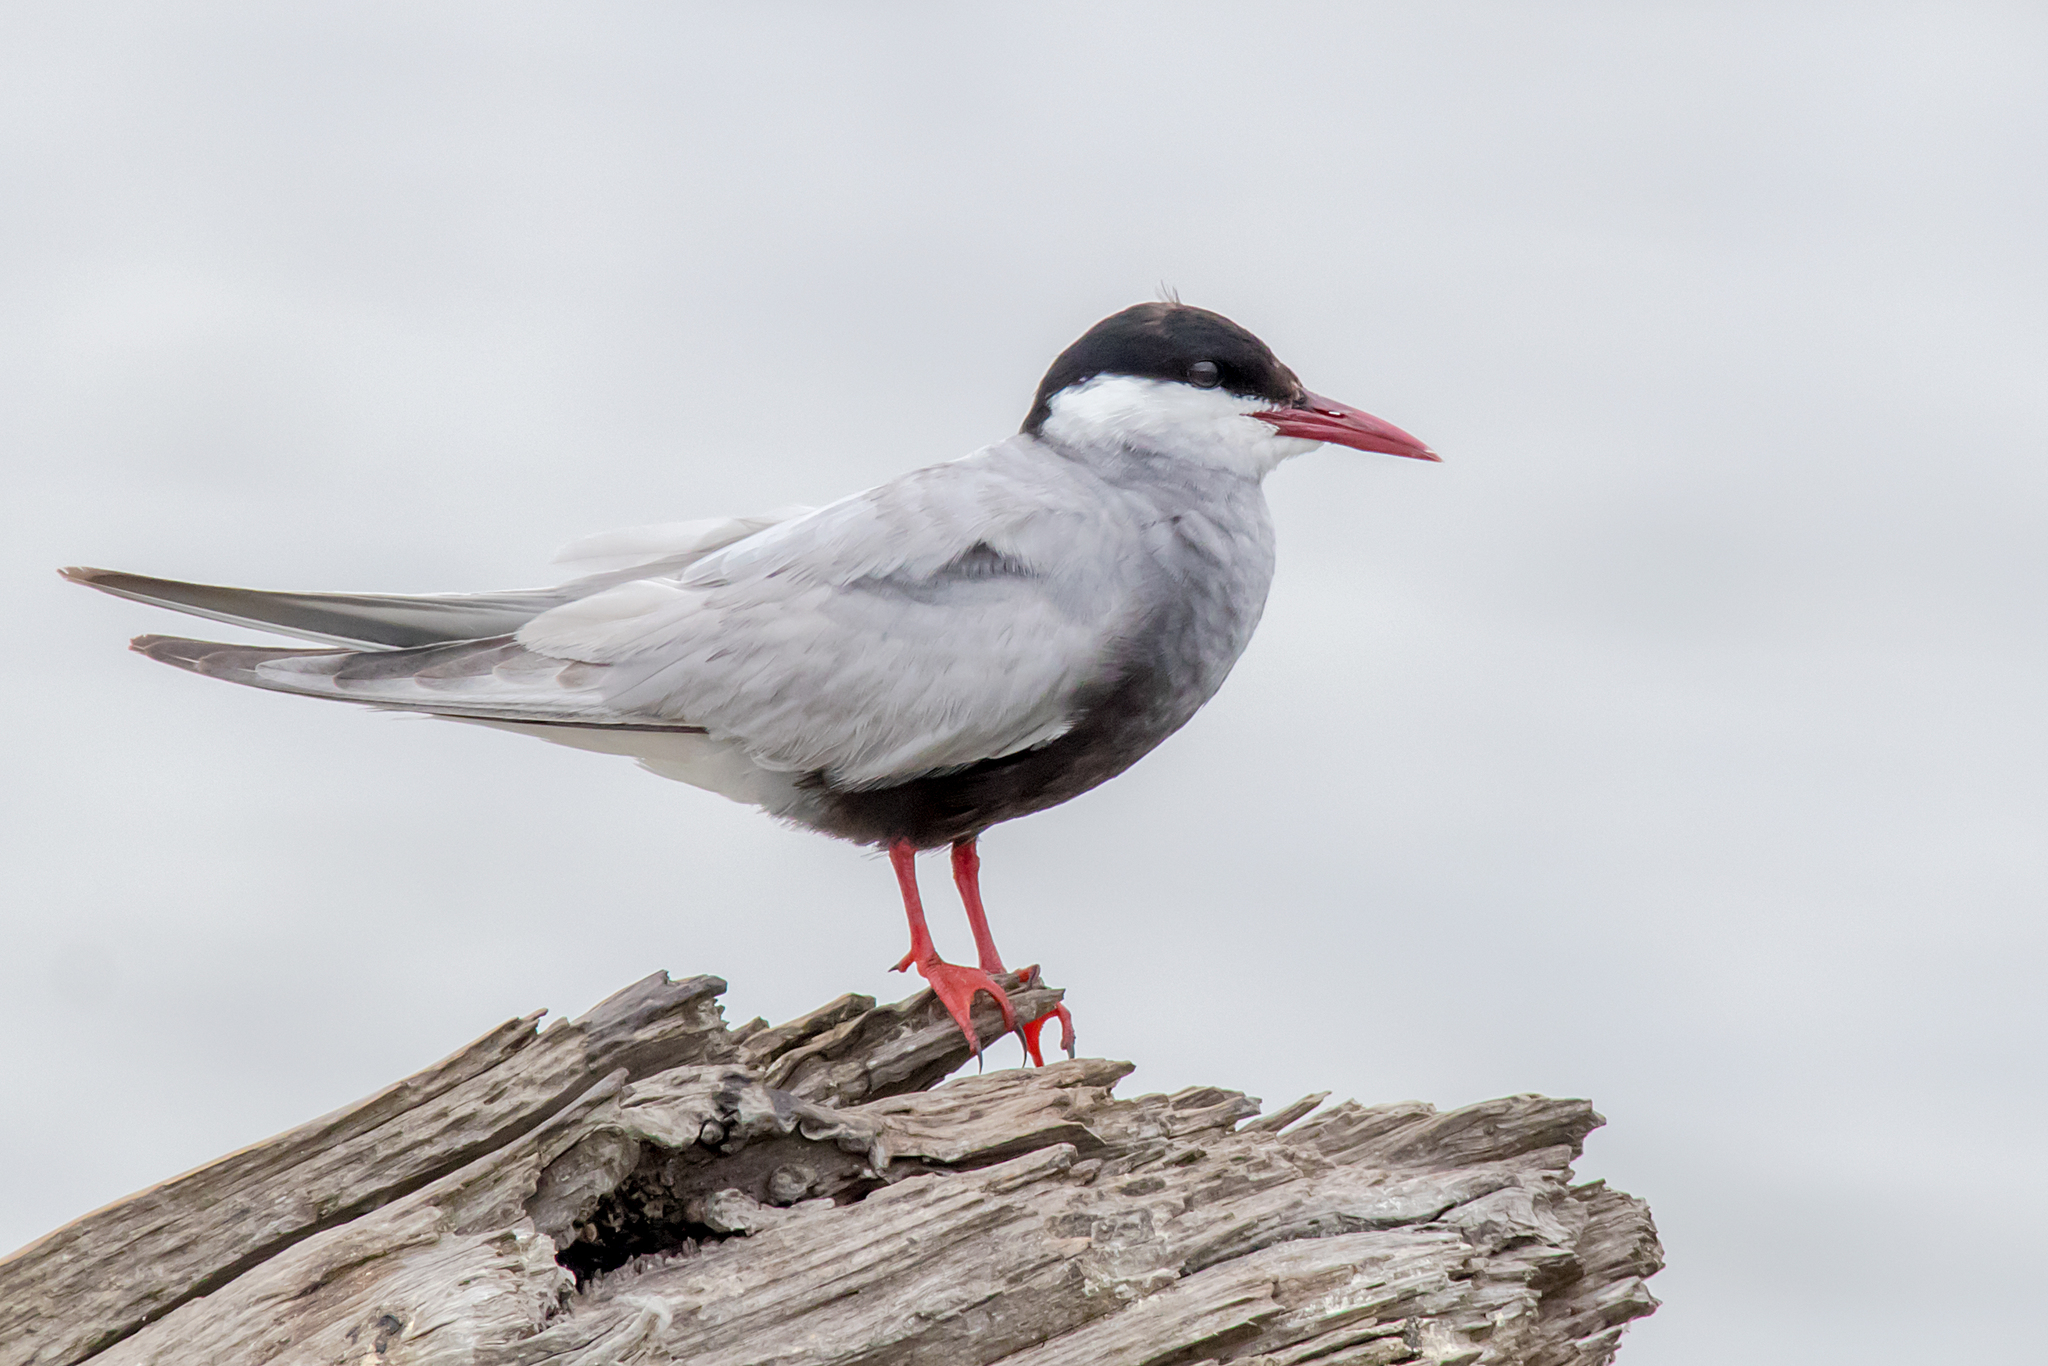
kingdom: Animalia
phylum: Chordata
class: Aves
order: Charadriiformes
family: Laridae
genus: Chlidonias
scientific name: Chlidonias hybrida
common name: Whiskered tern
